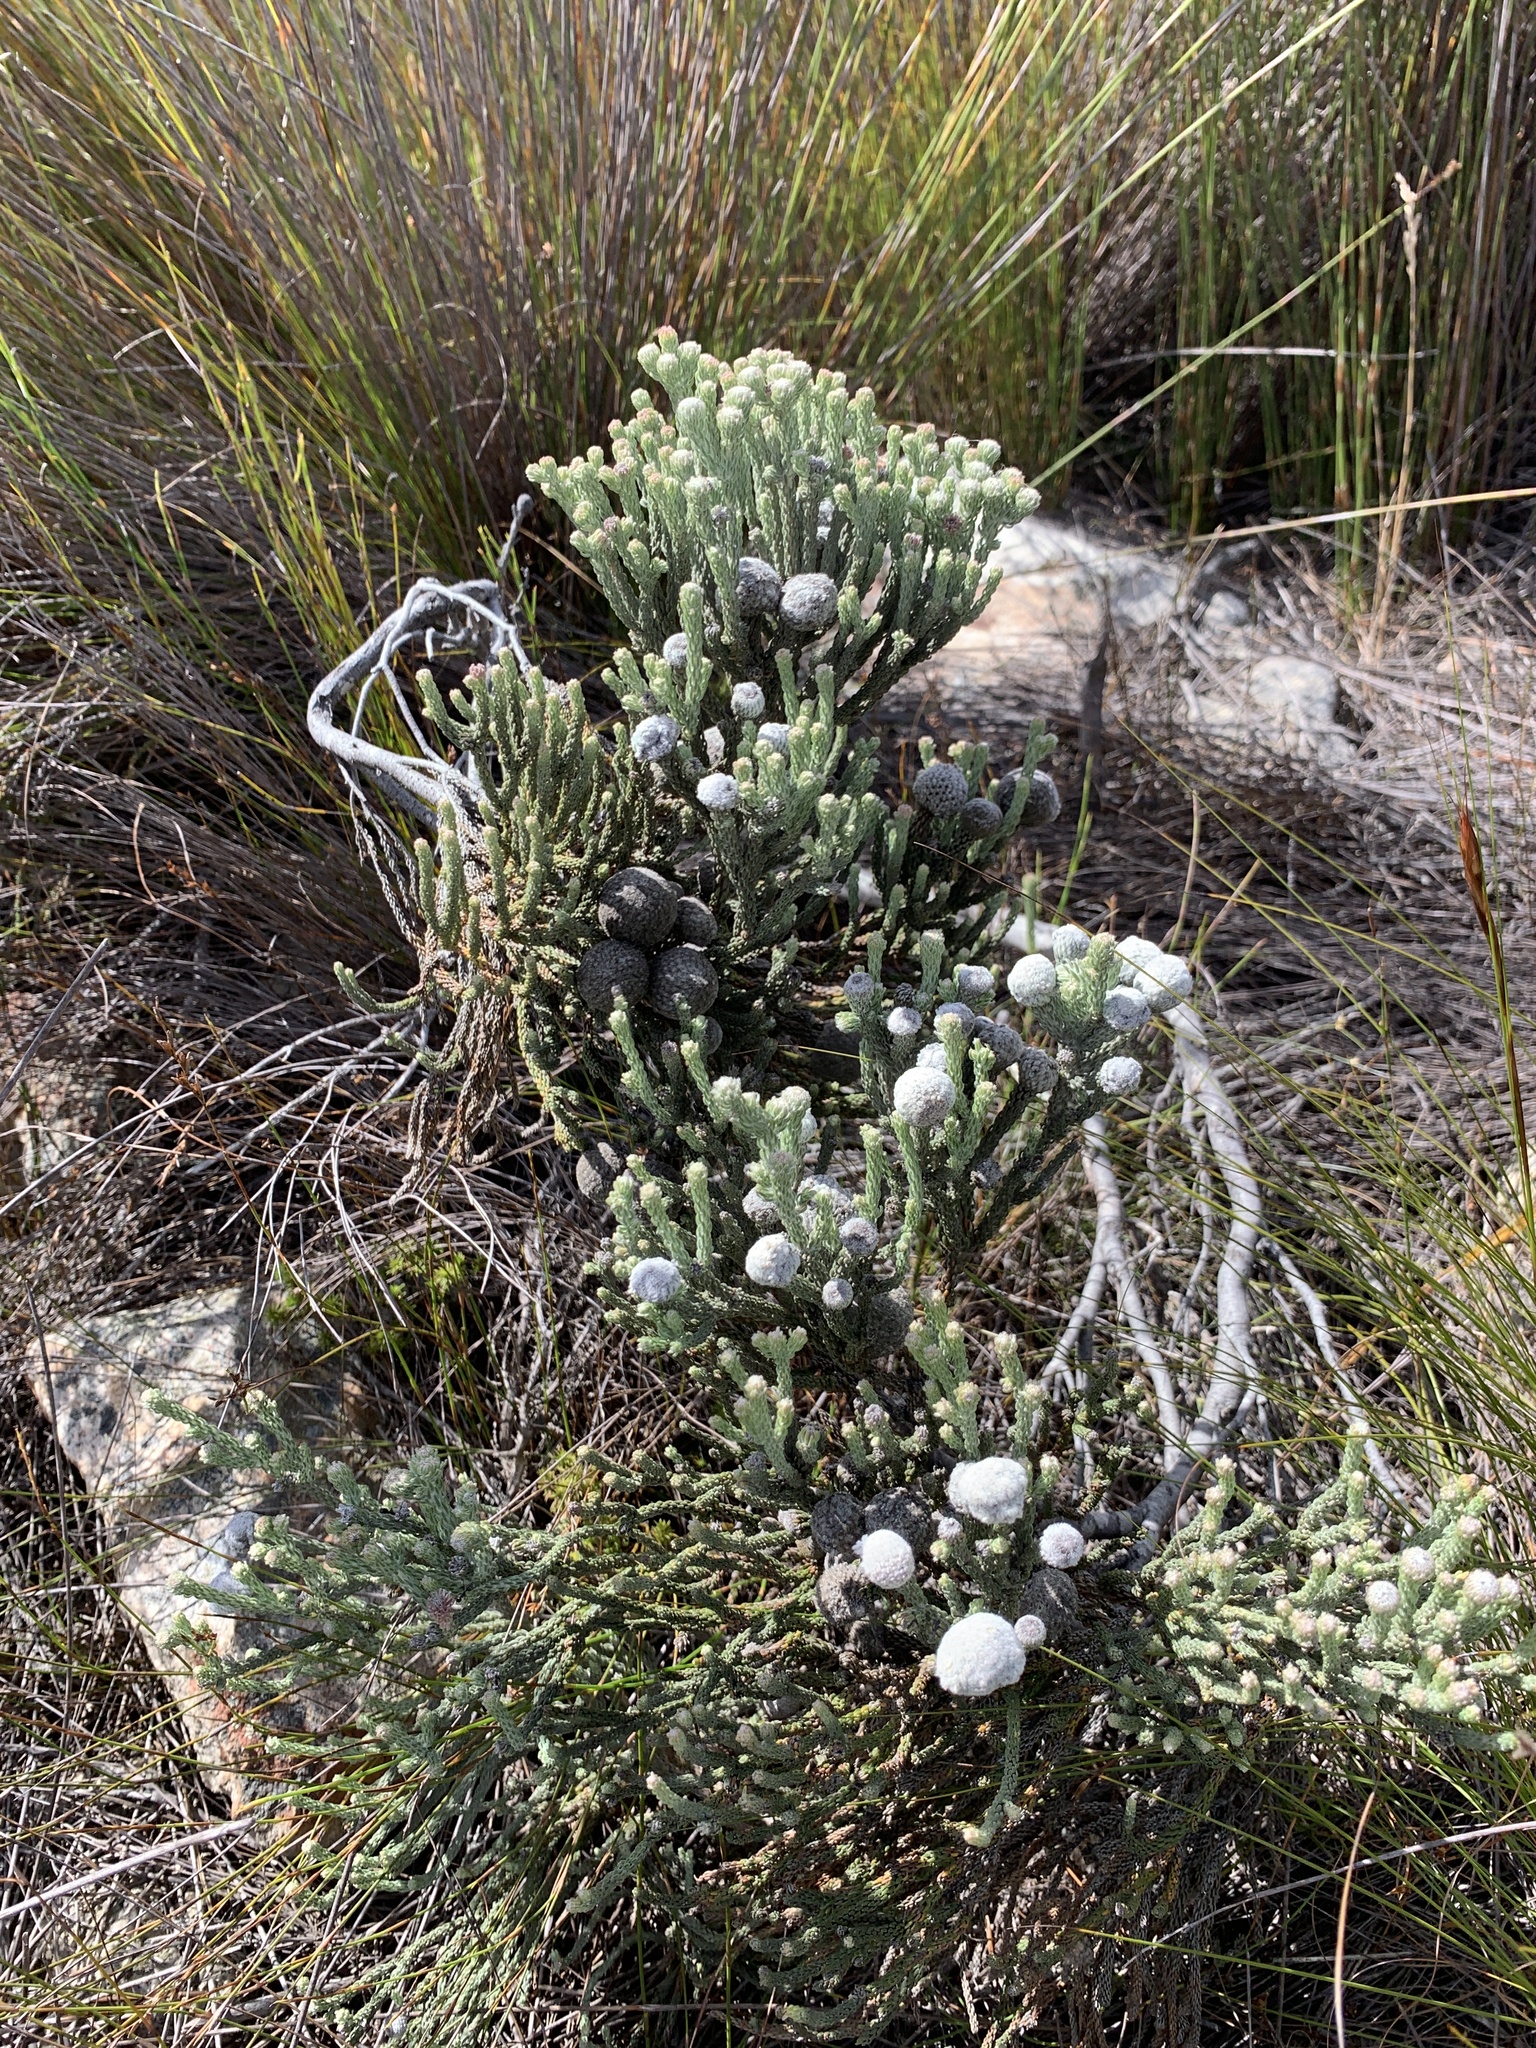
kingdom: Plantae
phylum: Tracheophyta
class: Magnoliopsida
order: Bruniales
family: Bruniaceae
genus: Brunia
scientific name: Brunia laevis
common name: Silver brunia
